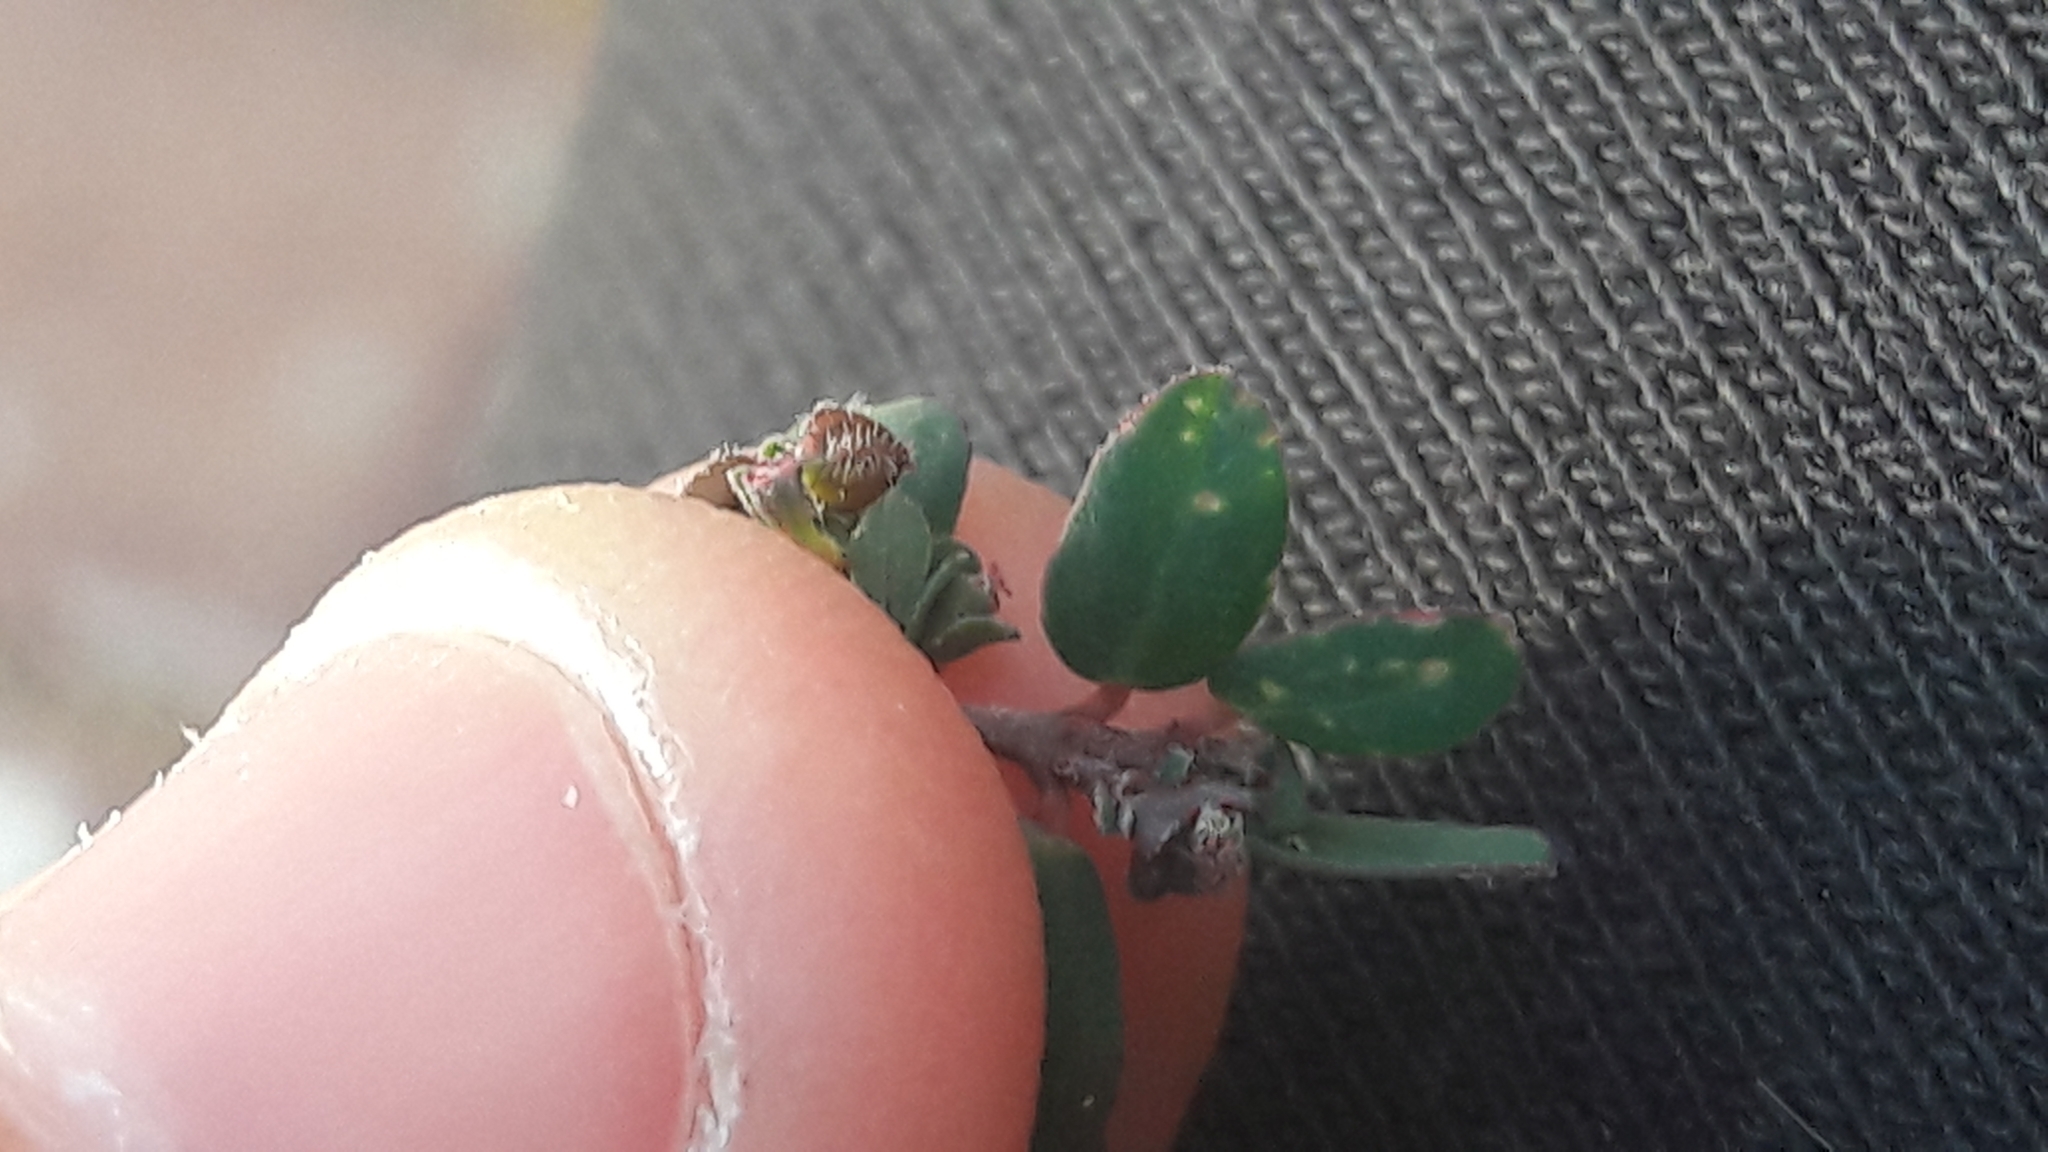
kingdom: Plantae
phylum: Tracheophyta
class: Magnoliopsida
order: Malpighiales
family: Euphorbiaceae
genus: Euphorbia
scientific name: Euphorbia prostrata
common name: Prostrate sandmat
